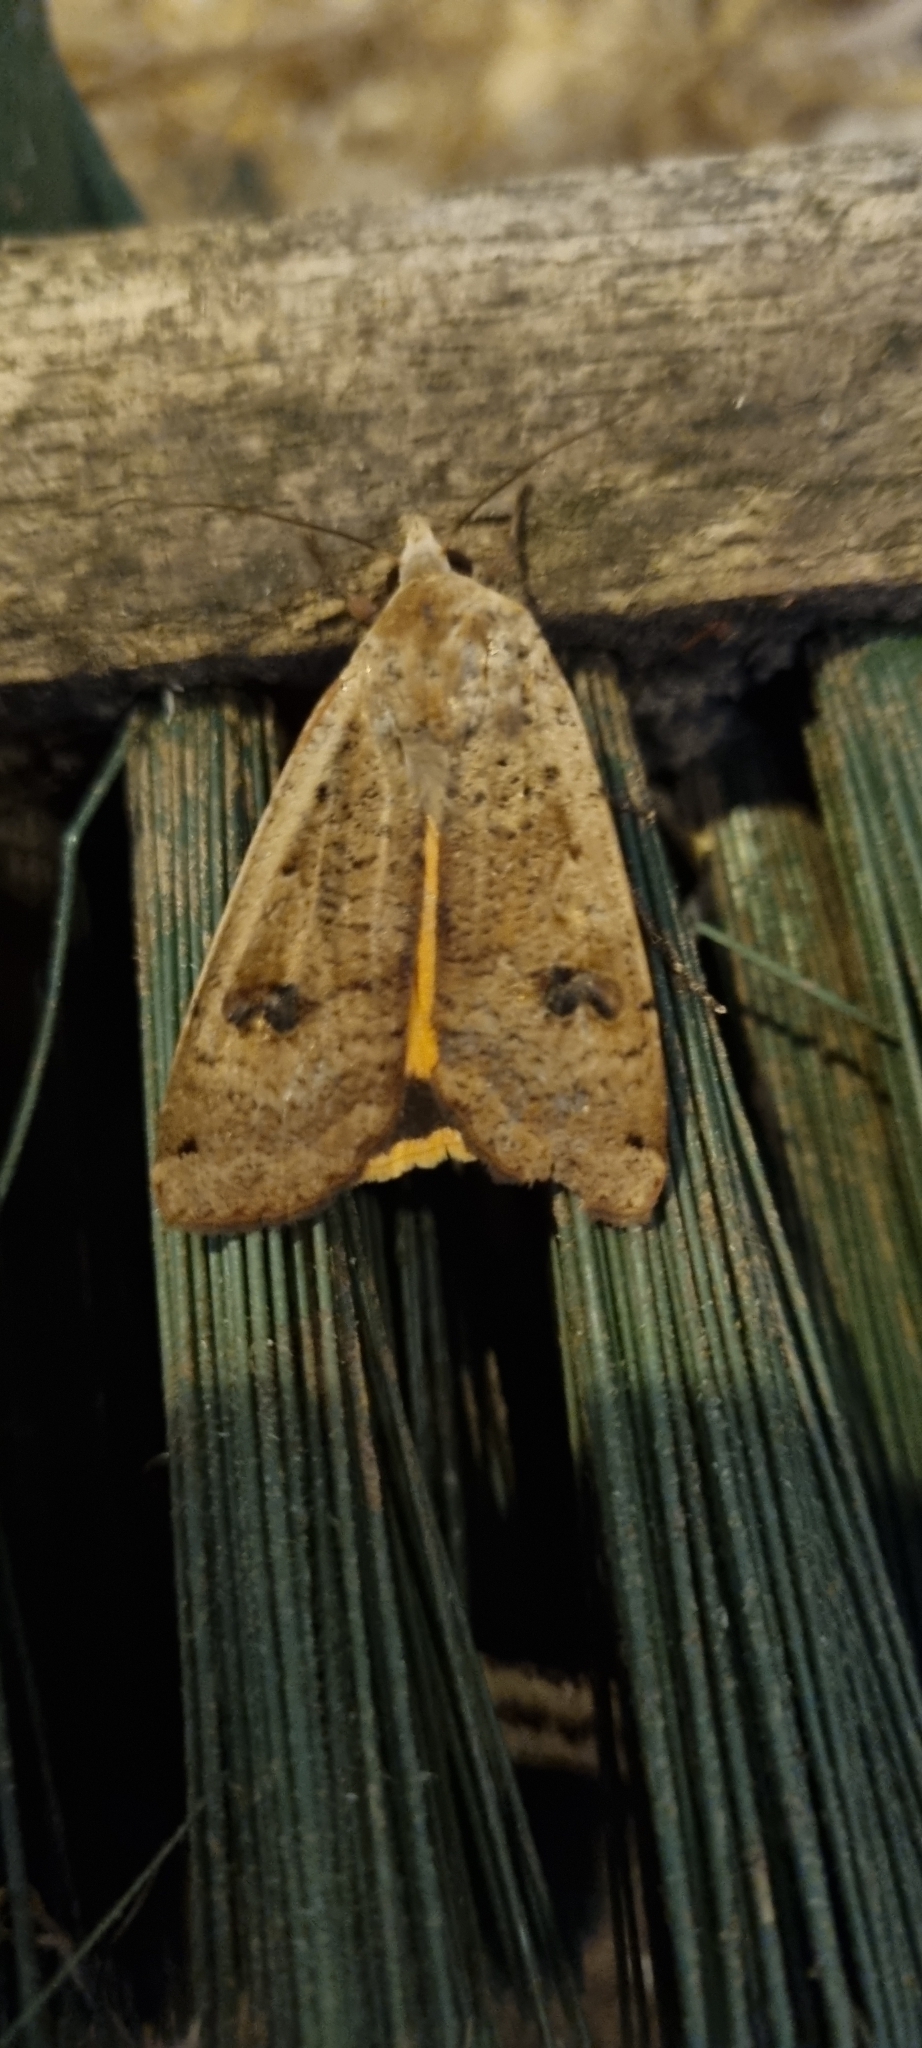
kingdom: Animalia
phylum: Arthropoda
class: Insecta
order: Lepidoptera
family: Noctuidae
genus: Noctua
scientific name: Noctua pronuba
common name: Large yellow underwing
